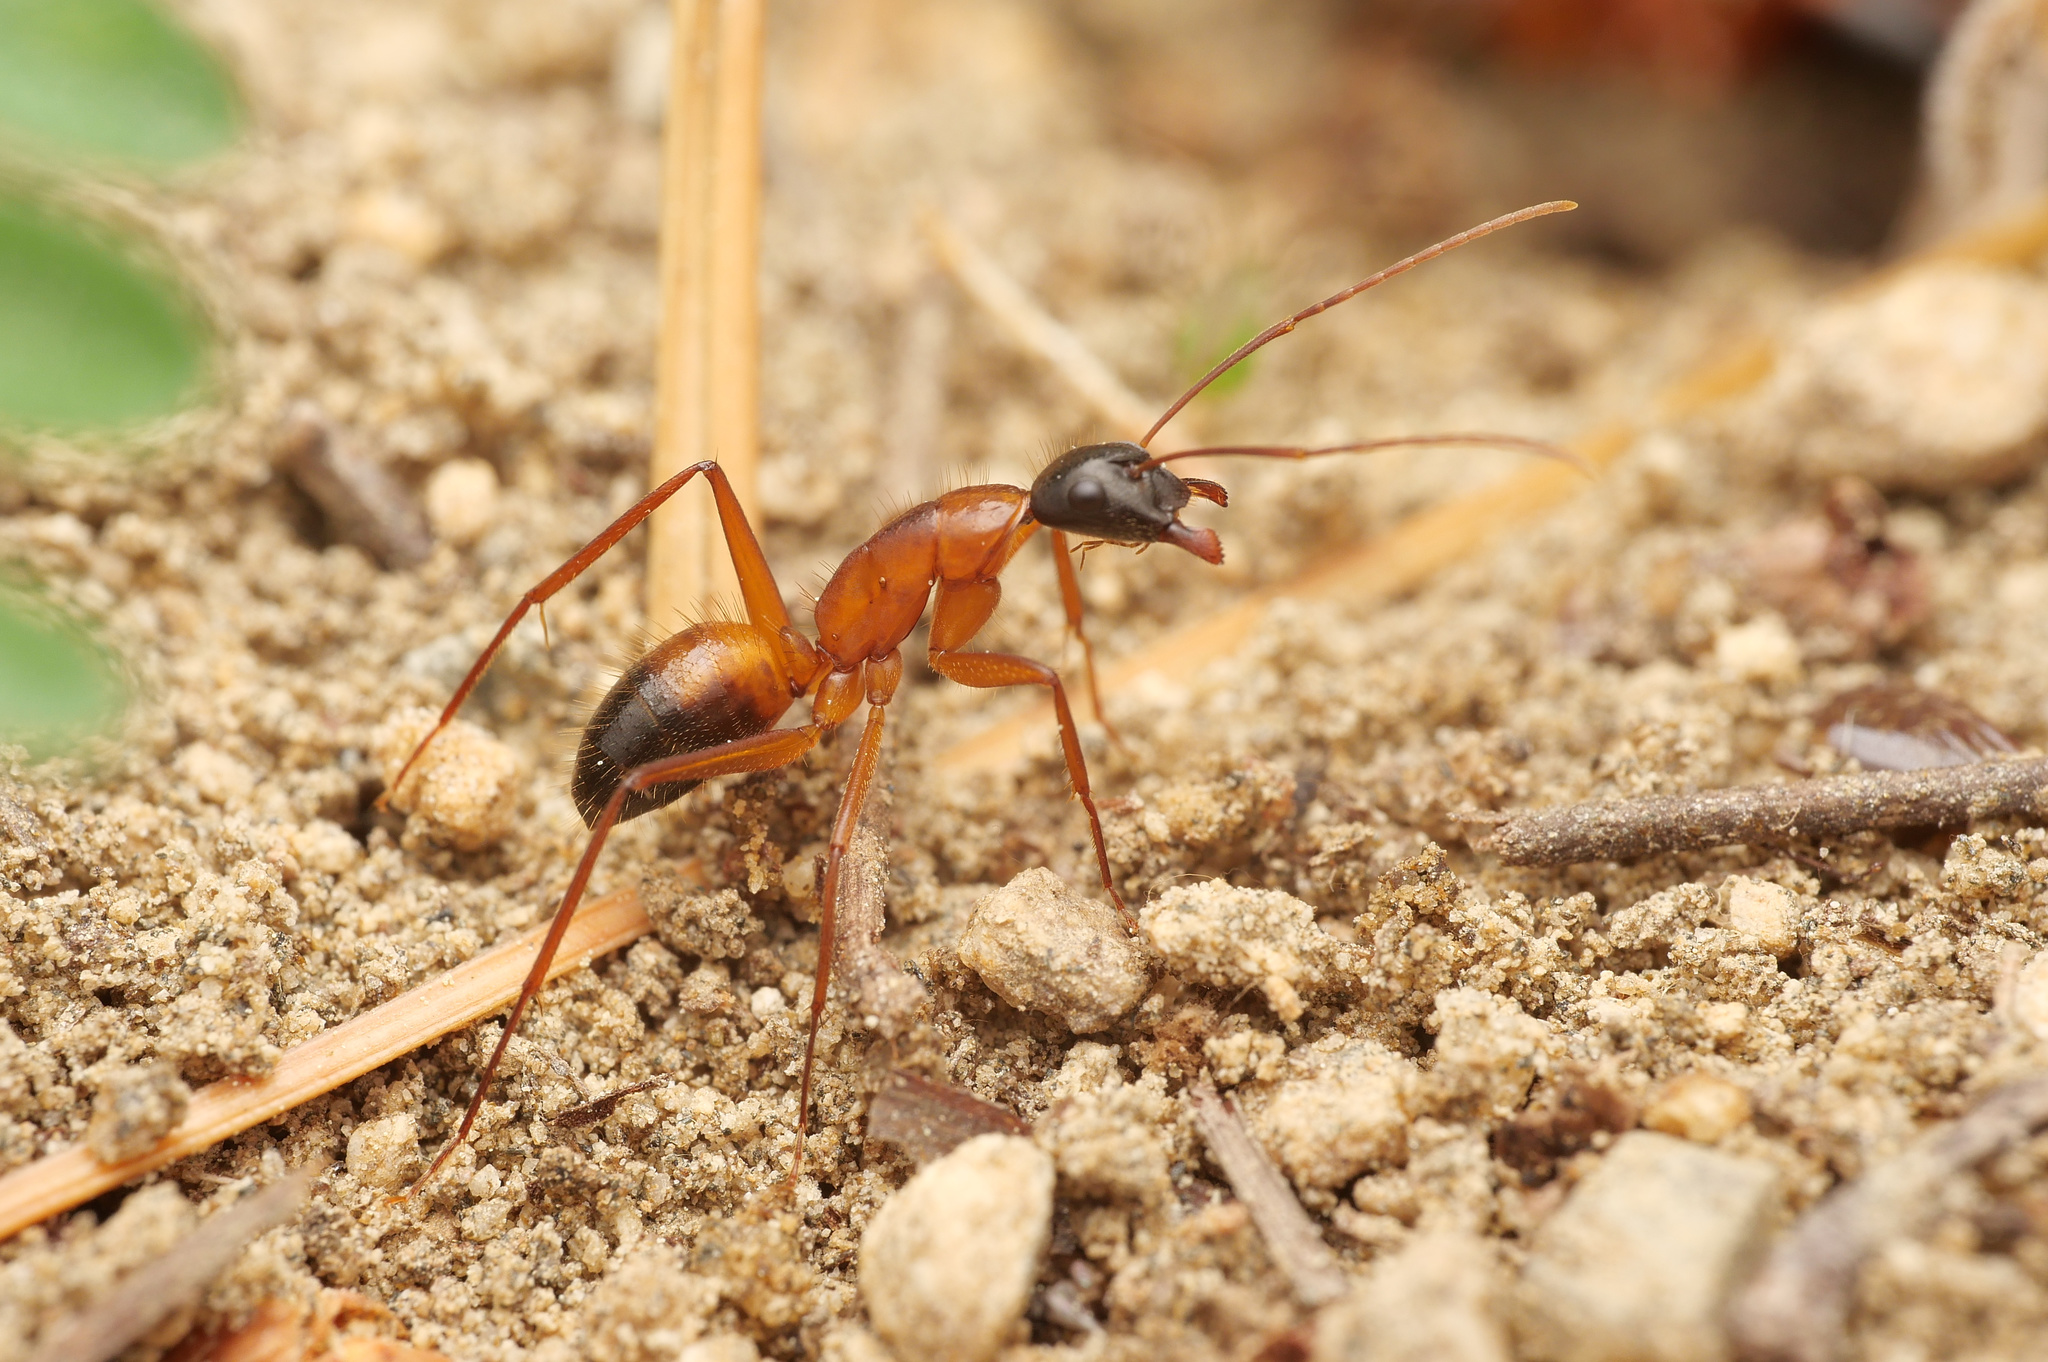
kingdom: Animalia
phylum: Arthropoda
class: Insecta
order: Hymenoptera
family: Formicidae
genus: Camponotus
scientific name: Camponotus samius
